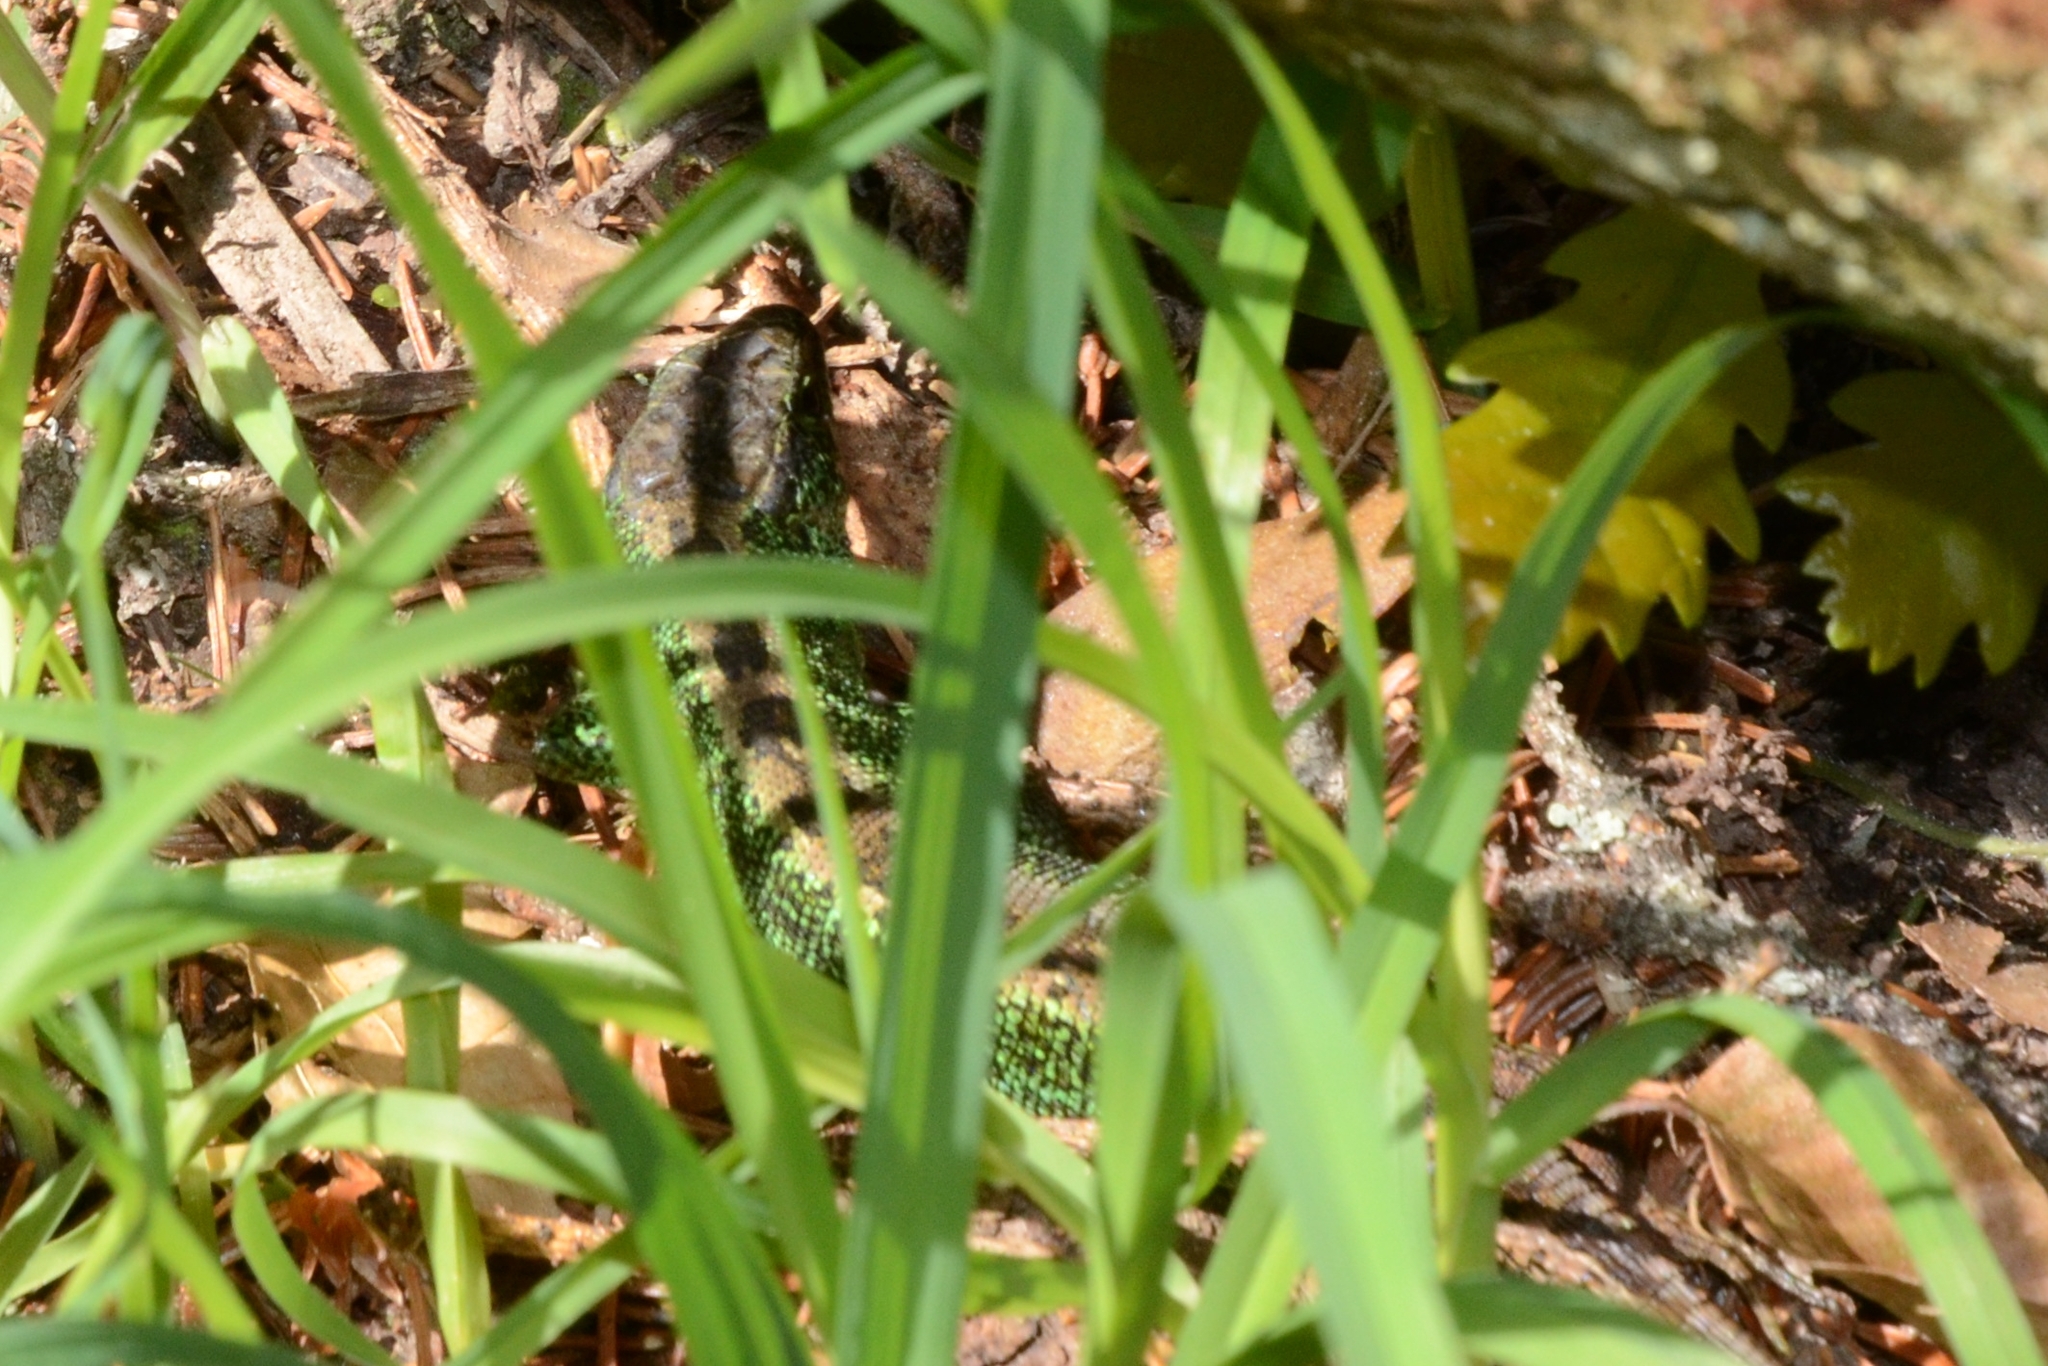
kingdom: Animalia
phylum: Chordata
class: Squamata
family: Lacertidae
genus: Lacerta
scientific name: Lacerta agilis
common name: Sand lizard
